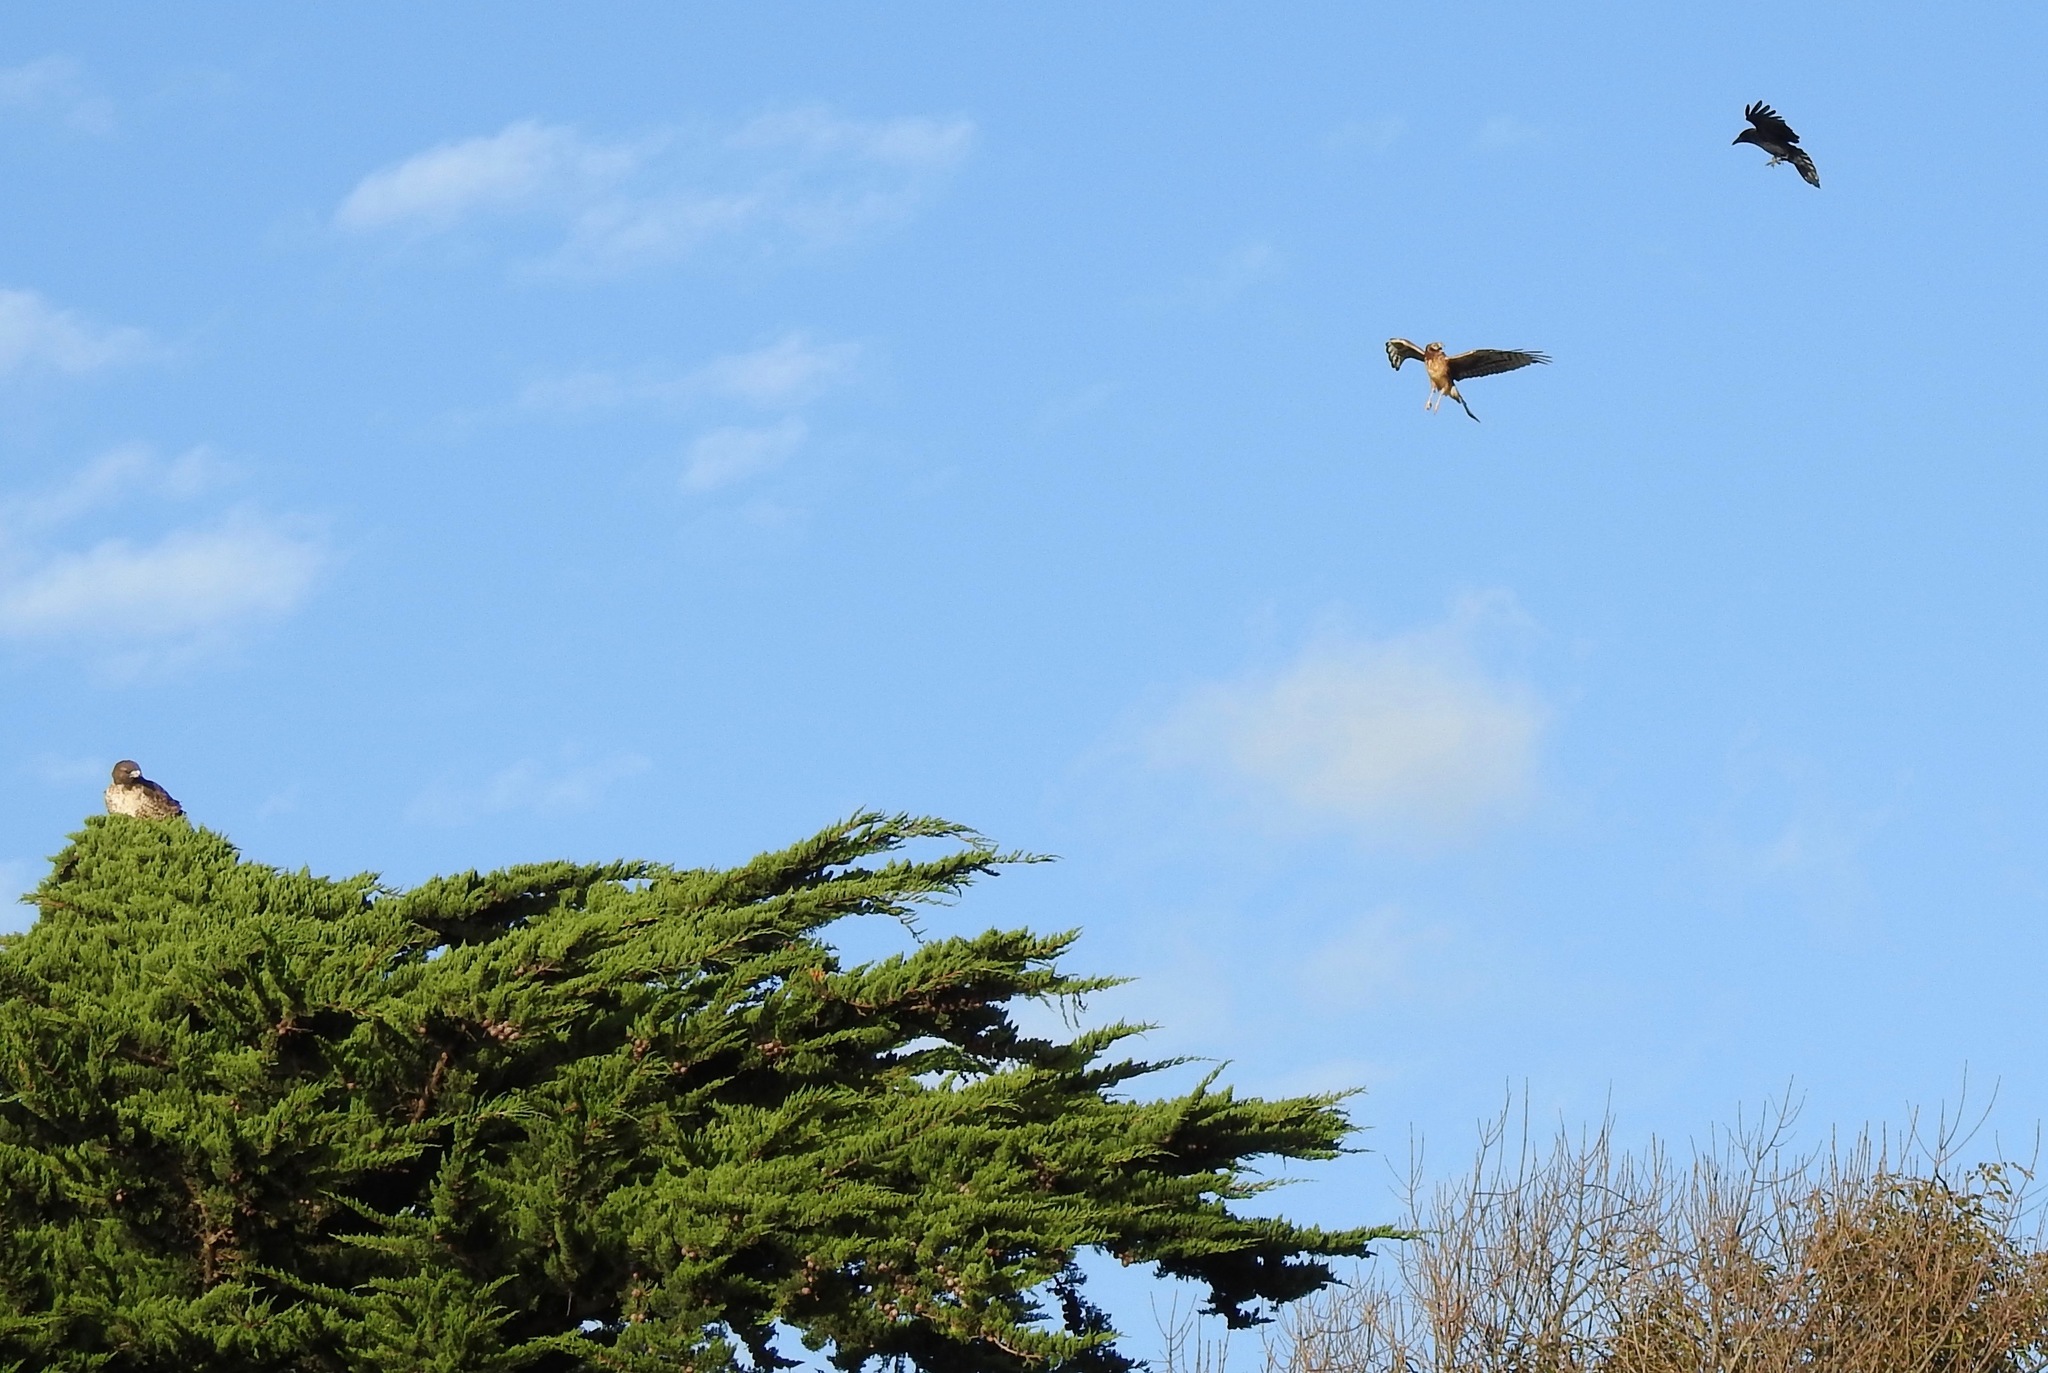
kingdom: Animalia
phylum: Chordata
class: Aves
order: Passeriformes
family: Corvidae
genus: Corvus
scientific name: Corvus brachyrhynchos
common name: American crow
